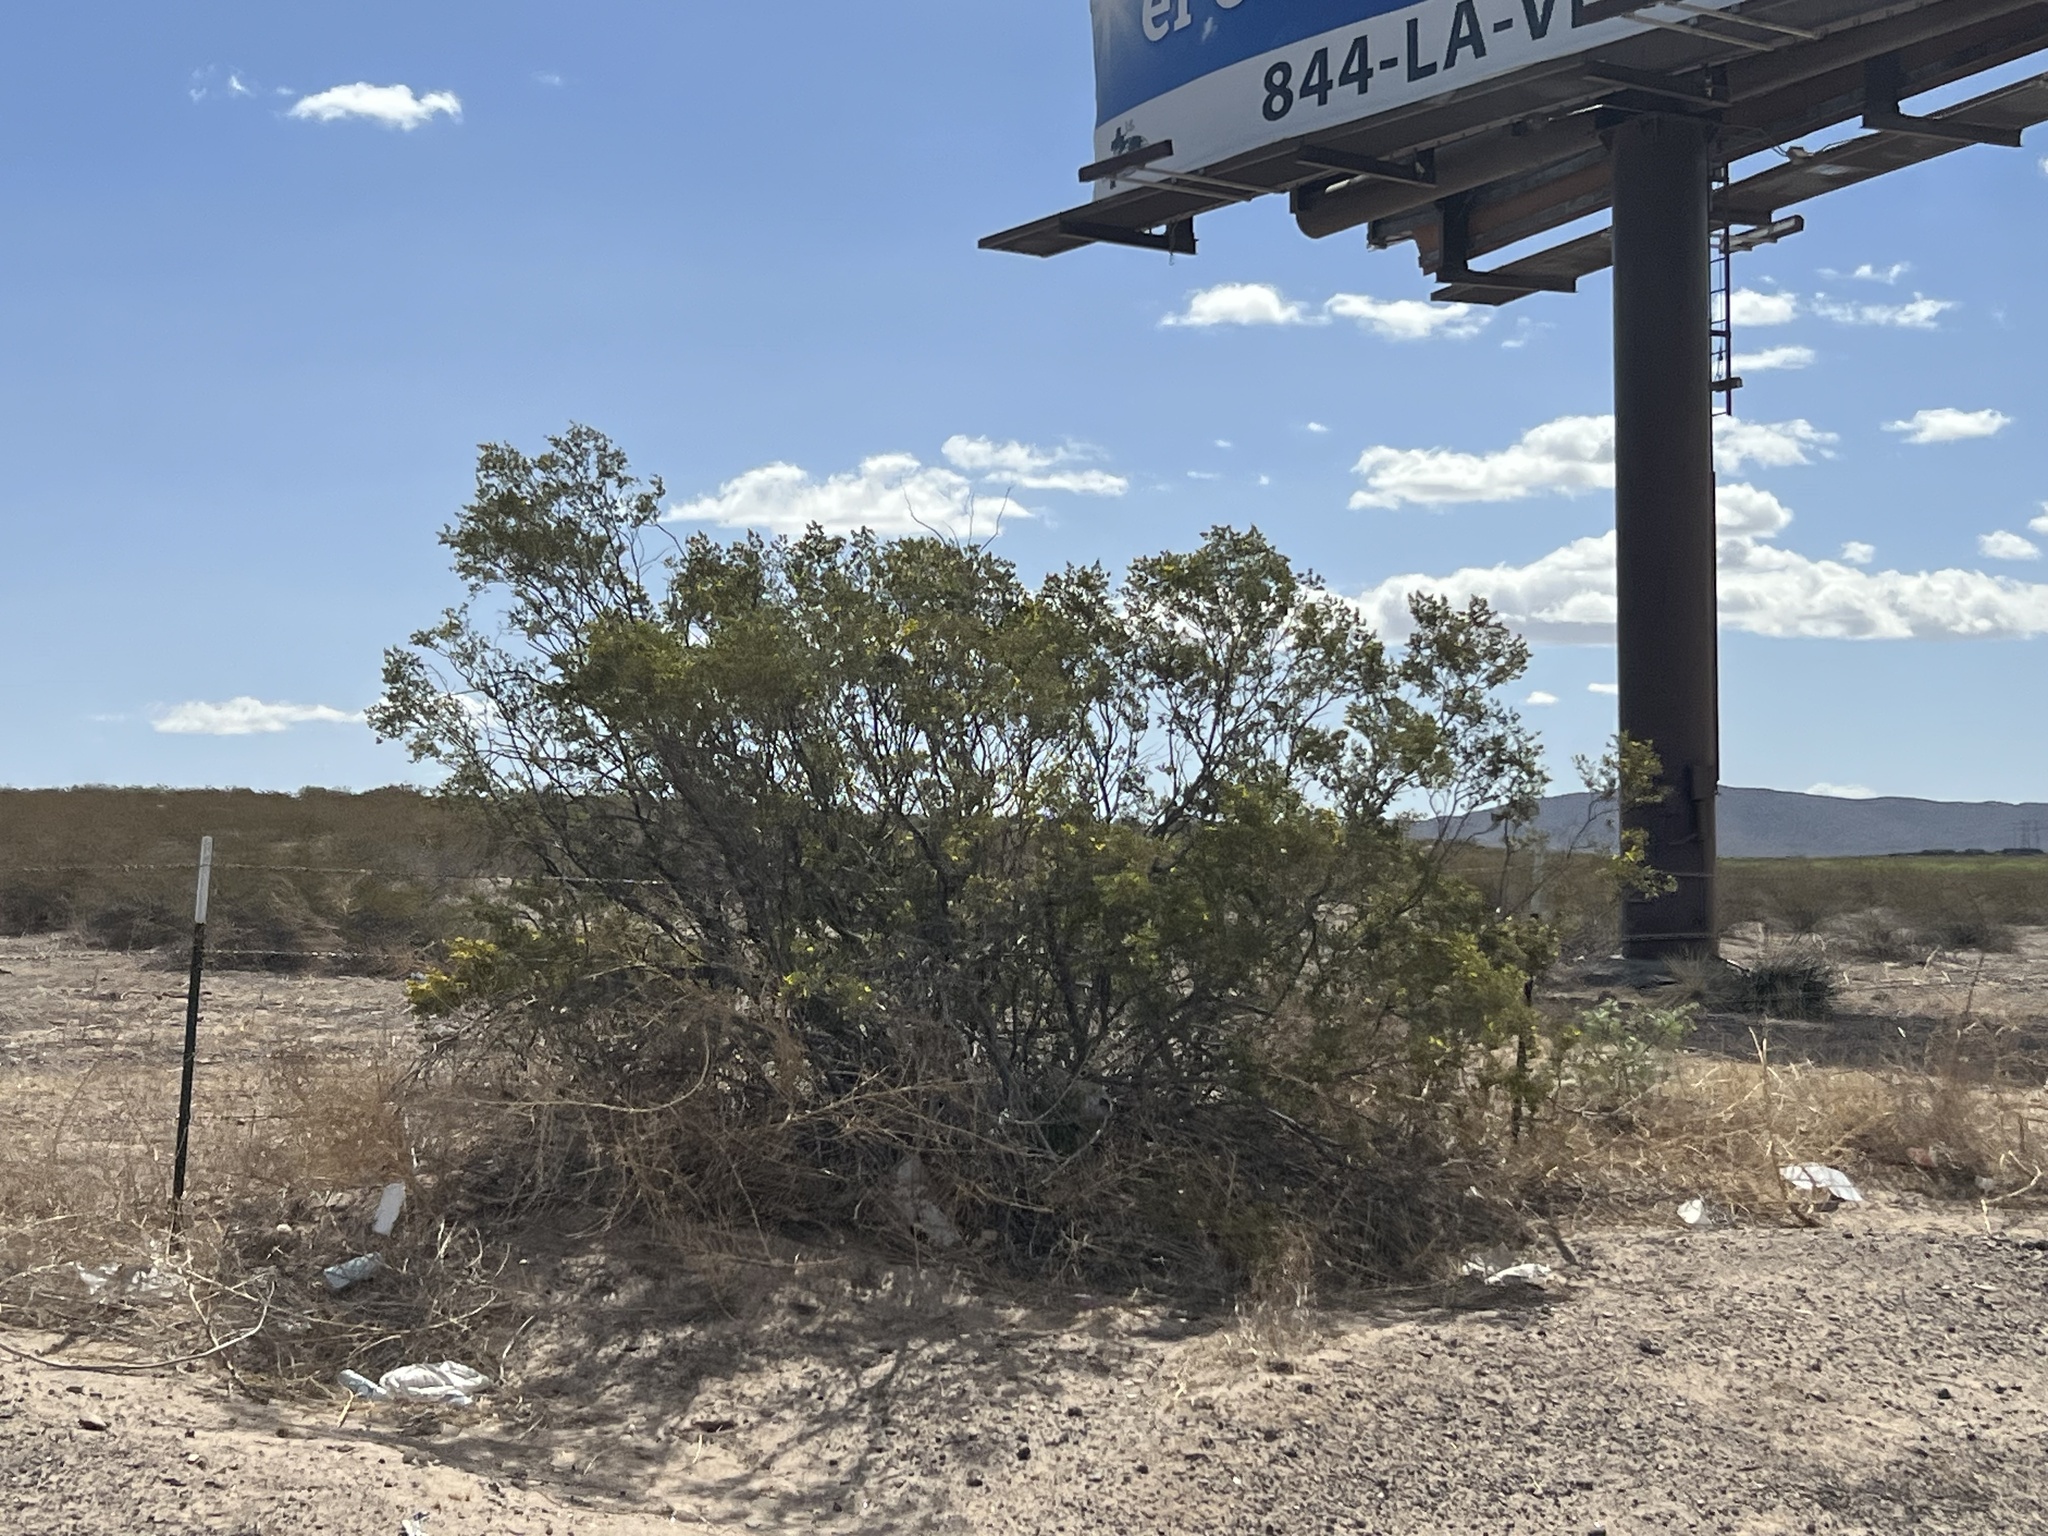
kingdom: Plantae
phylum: Tracheophyta
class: Magnoliopsida
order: Zygophyllales
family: Zygophyllaceae
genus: Larrea
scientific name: Larrea tridentata
